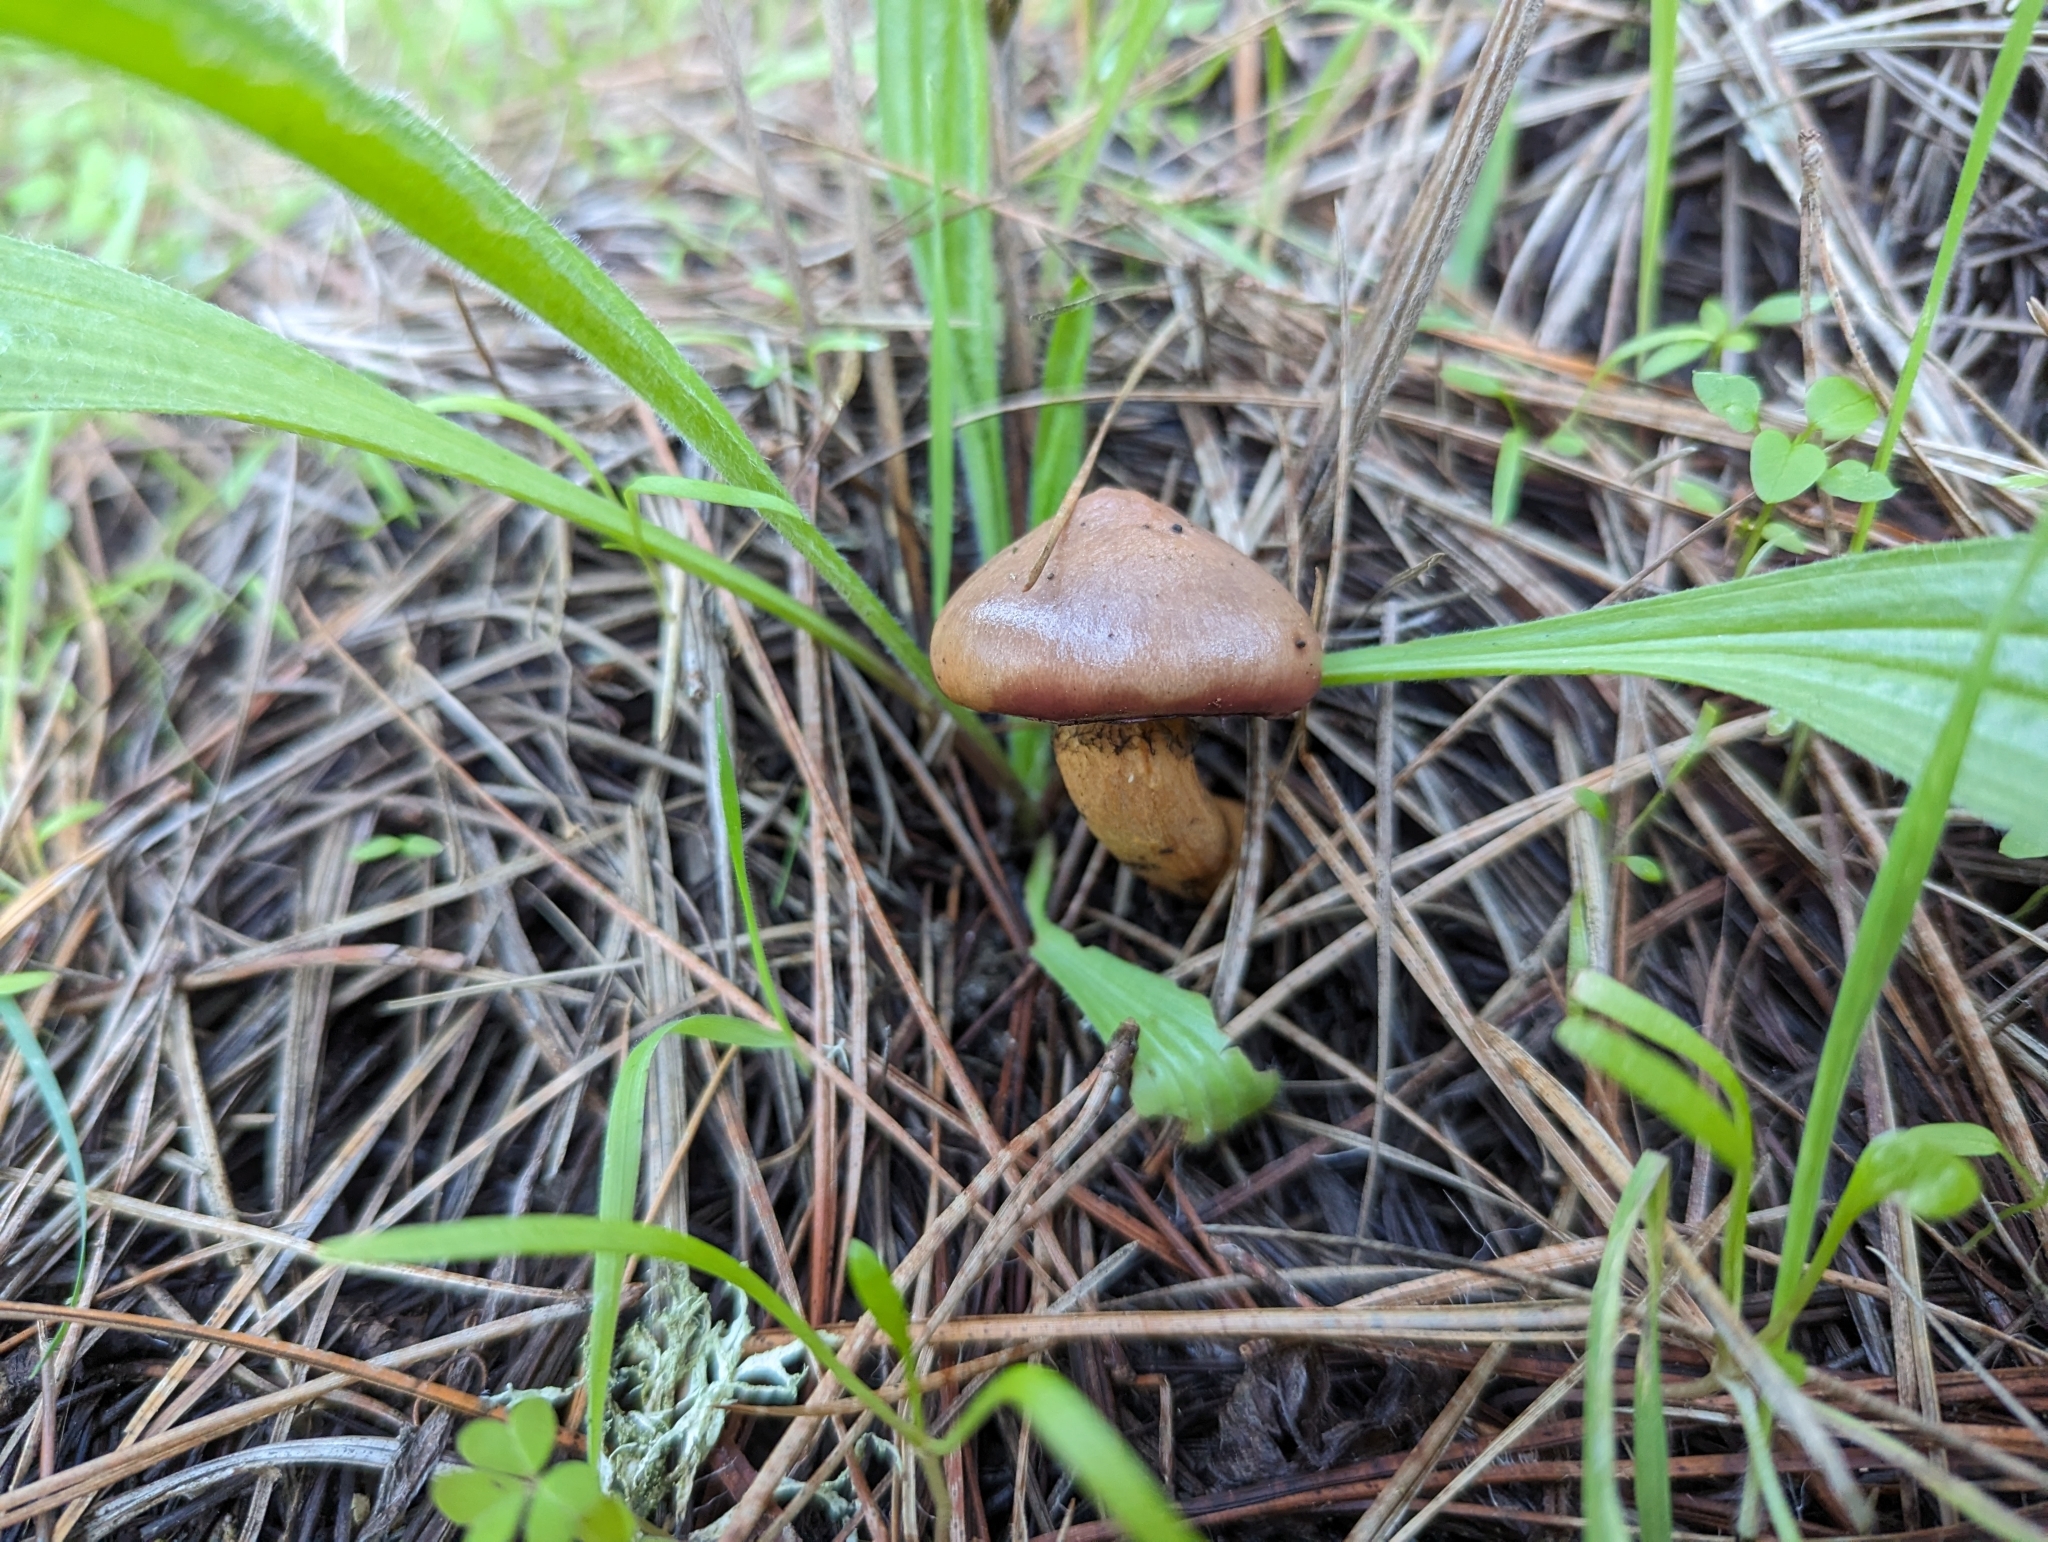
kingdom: Fungi
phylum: Basidiomycota
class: Agaricomycetes
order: Boletales
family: Gomphidiaceae
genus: Chroogomphus
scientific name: Chroogomphus vinicolor
